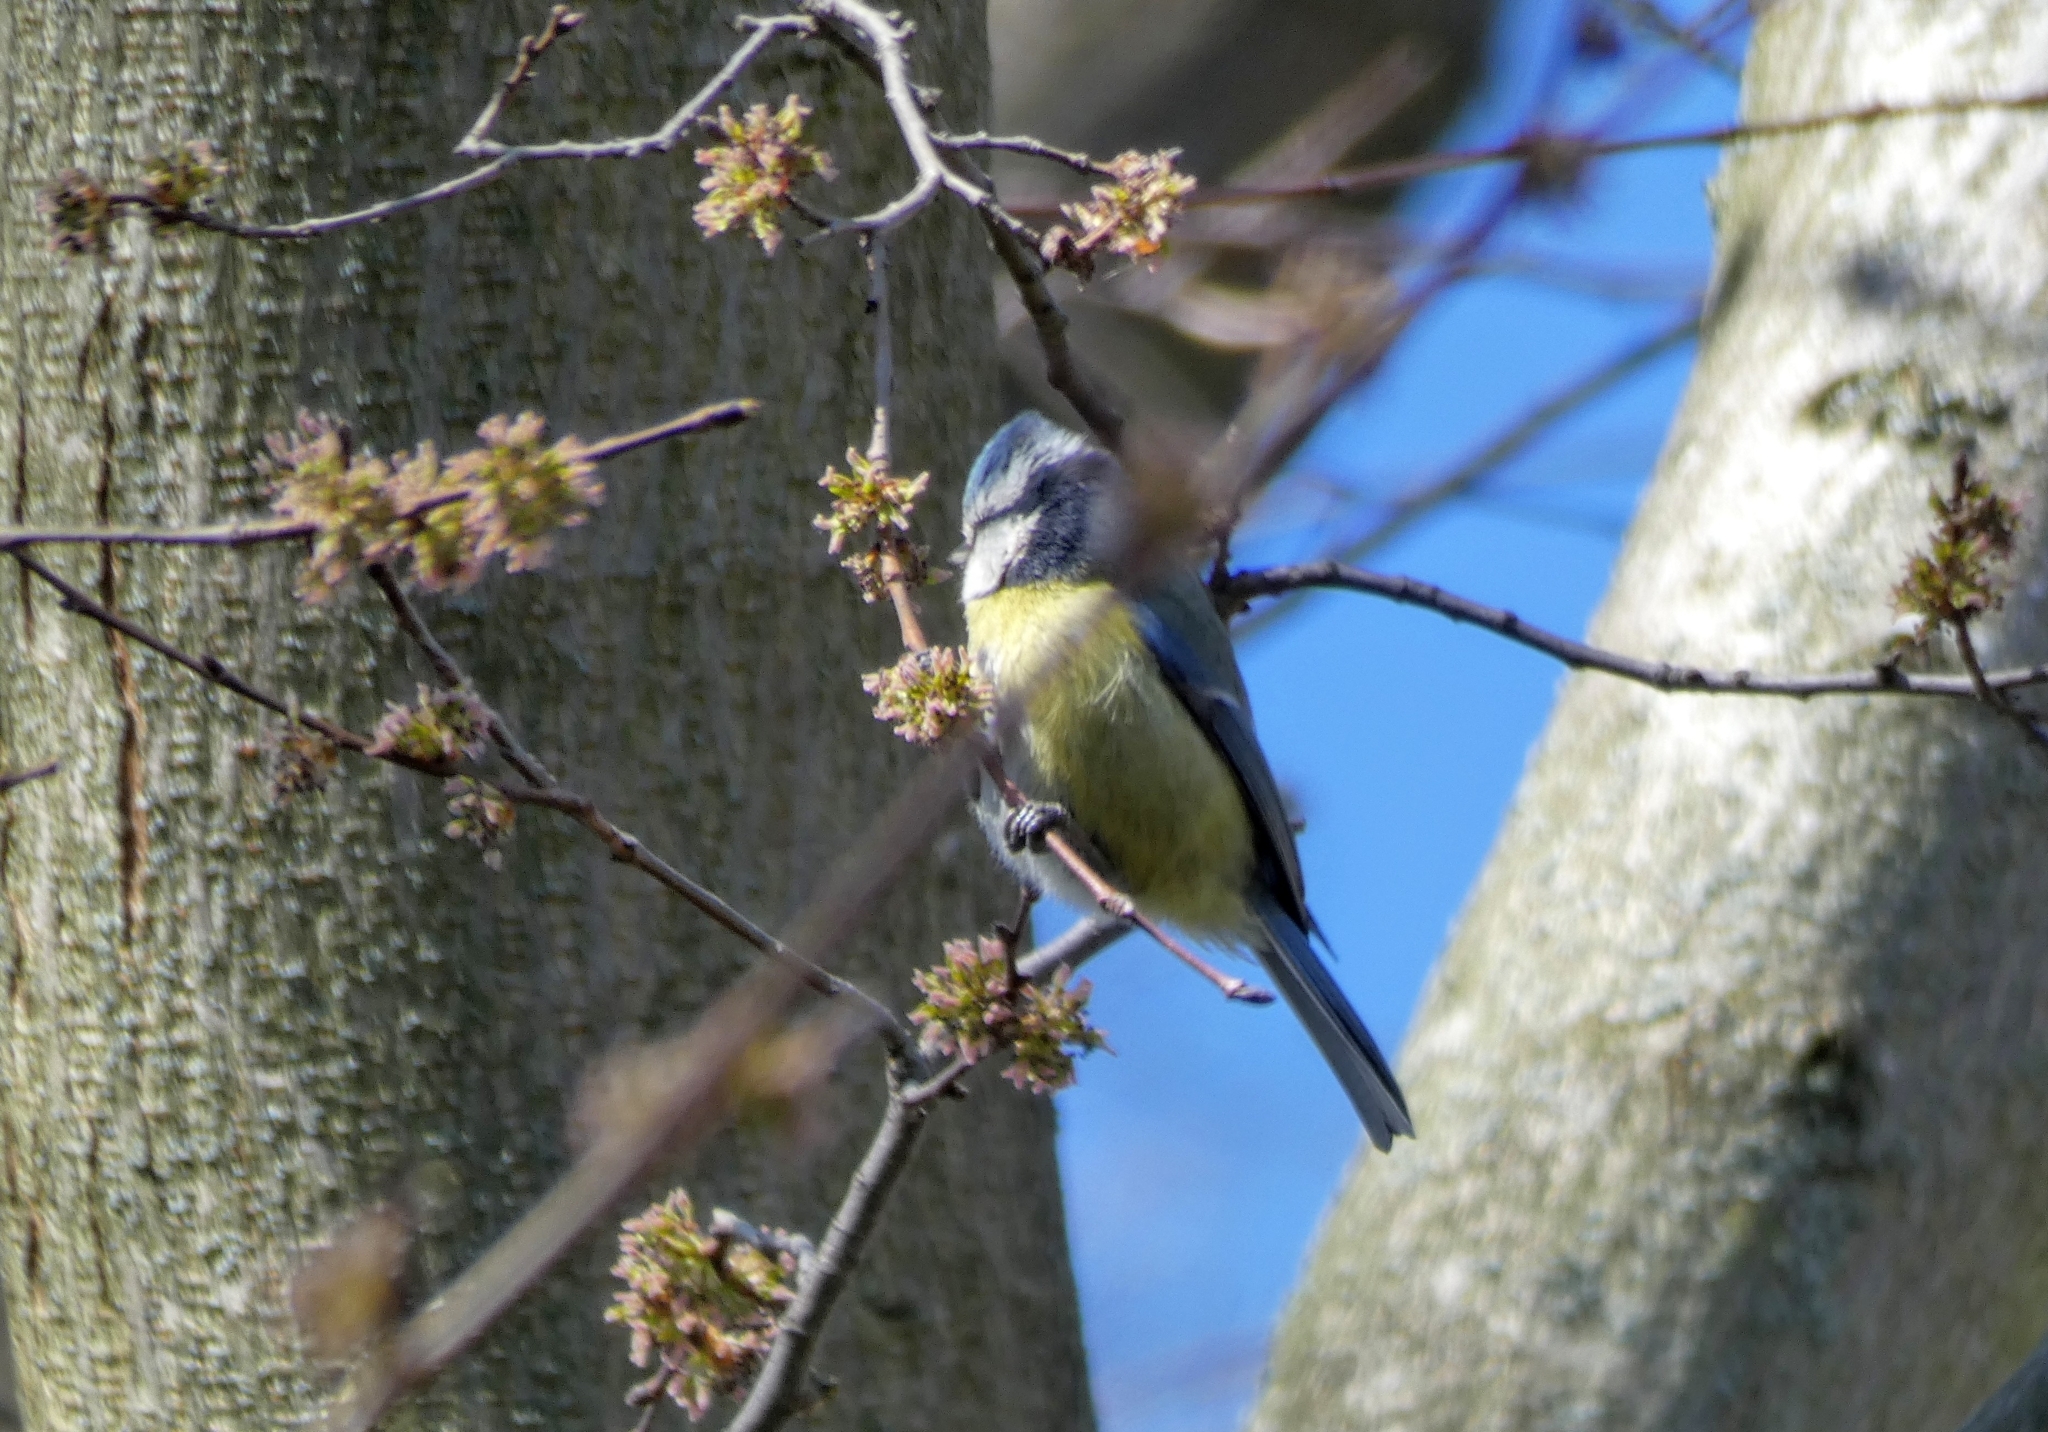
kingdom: Animalia
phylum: Chordata
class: Aves
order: Passeriformes
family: Paridae
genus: Cyanistes
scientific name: Cyanistes caeruleus
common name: Eurasian blue tit
